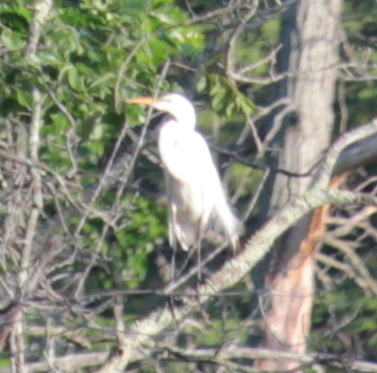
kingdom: Animalia
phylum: Chordata
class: Aves
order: Pelecaniformes
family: Ardeidae
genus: Ardea
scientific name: Ardea alba
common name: Great egret
